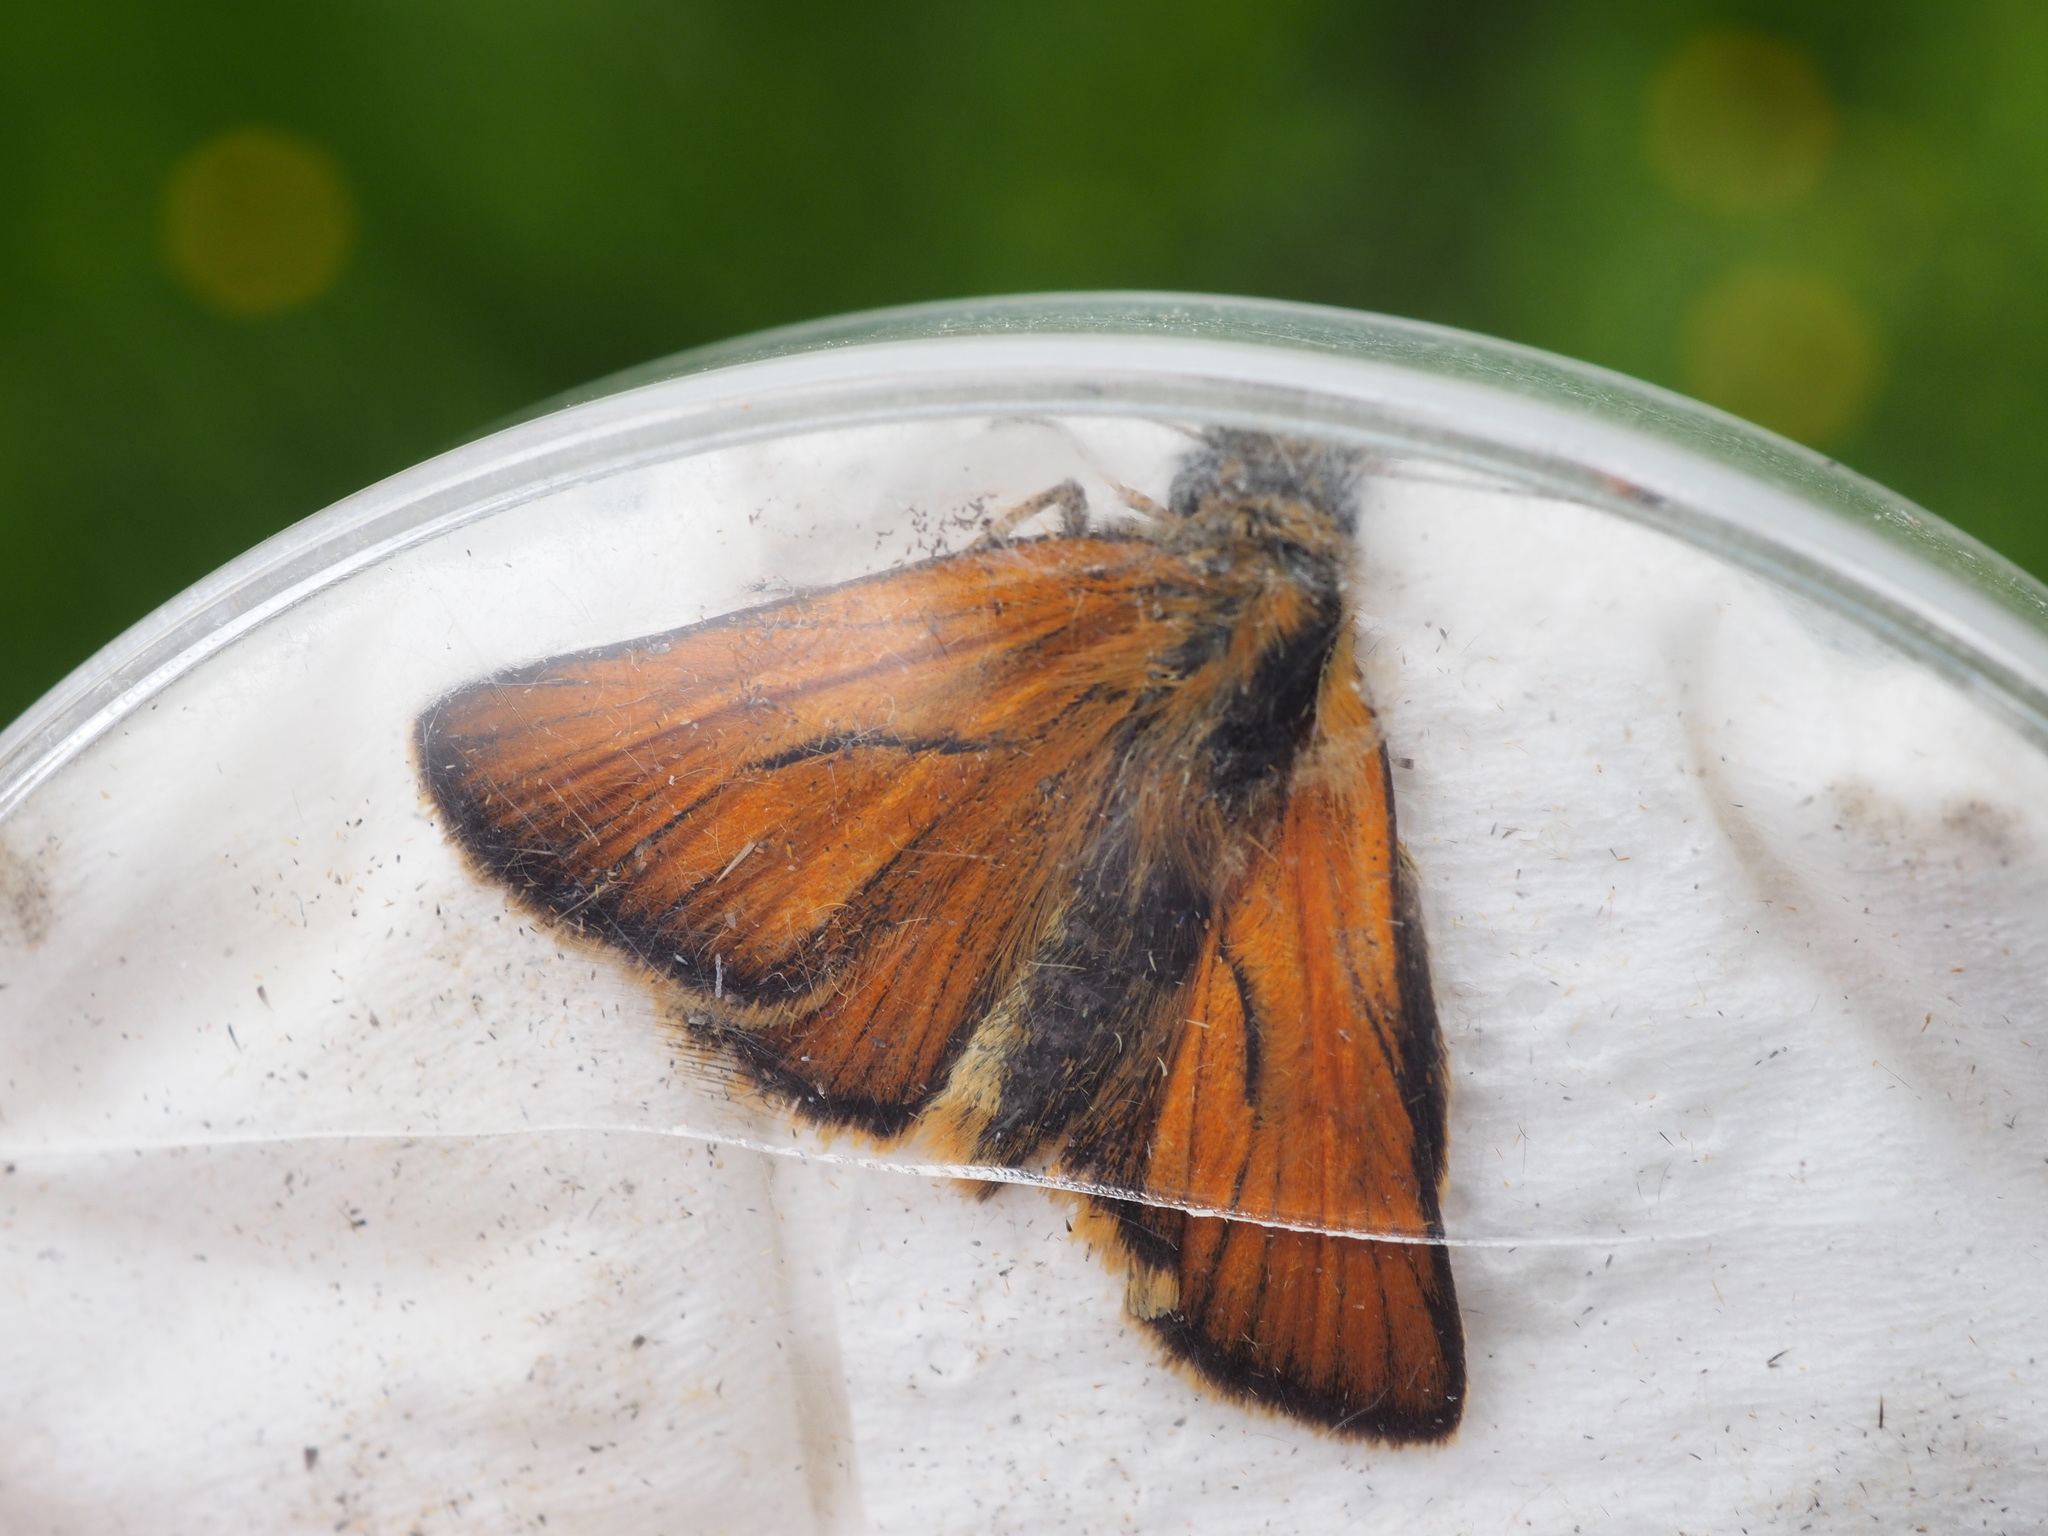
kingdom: Animalia
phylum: Arthropoda
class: Insecta
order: Lepidoptera
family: Hesperiidae
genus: Thymelicus
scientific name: Thymelicus sylvestris
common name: Small skipper
